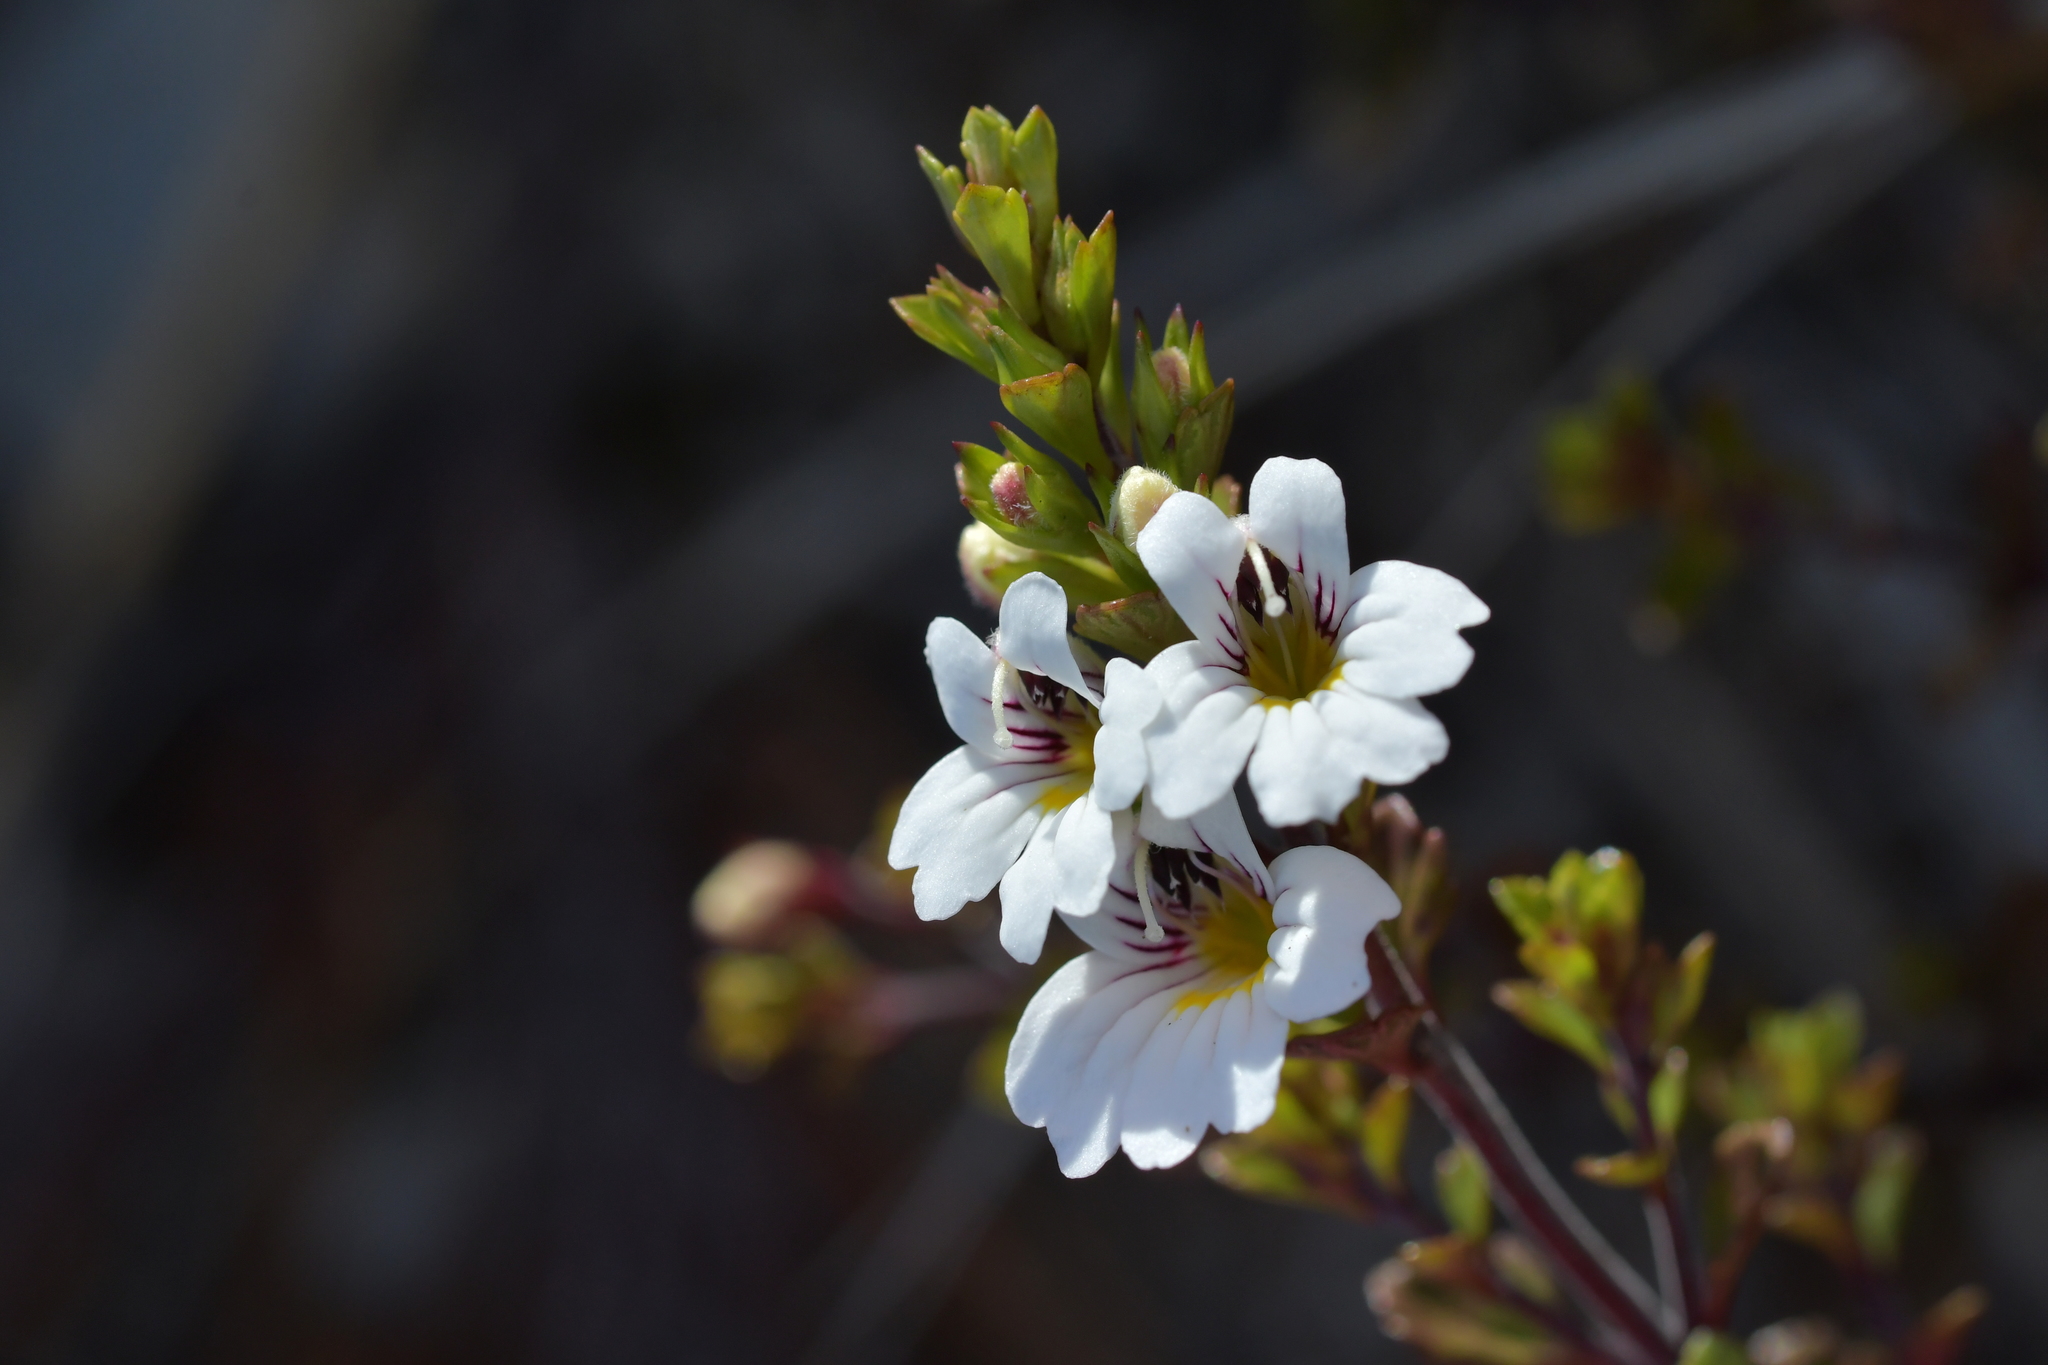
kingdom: Plantae
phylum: Tracheophyta
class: Magnoliopsida
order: Lamiales
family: Orobanchaceae
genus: Euphrasia
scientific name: Euphrasia cuneata
